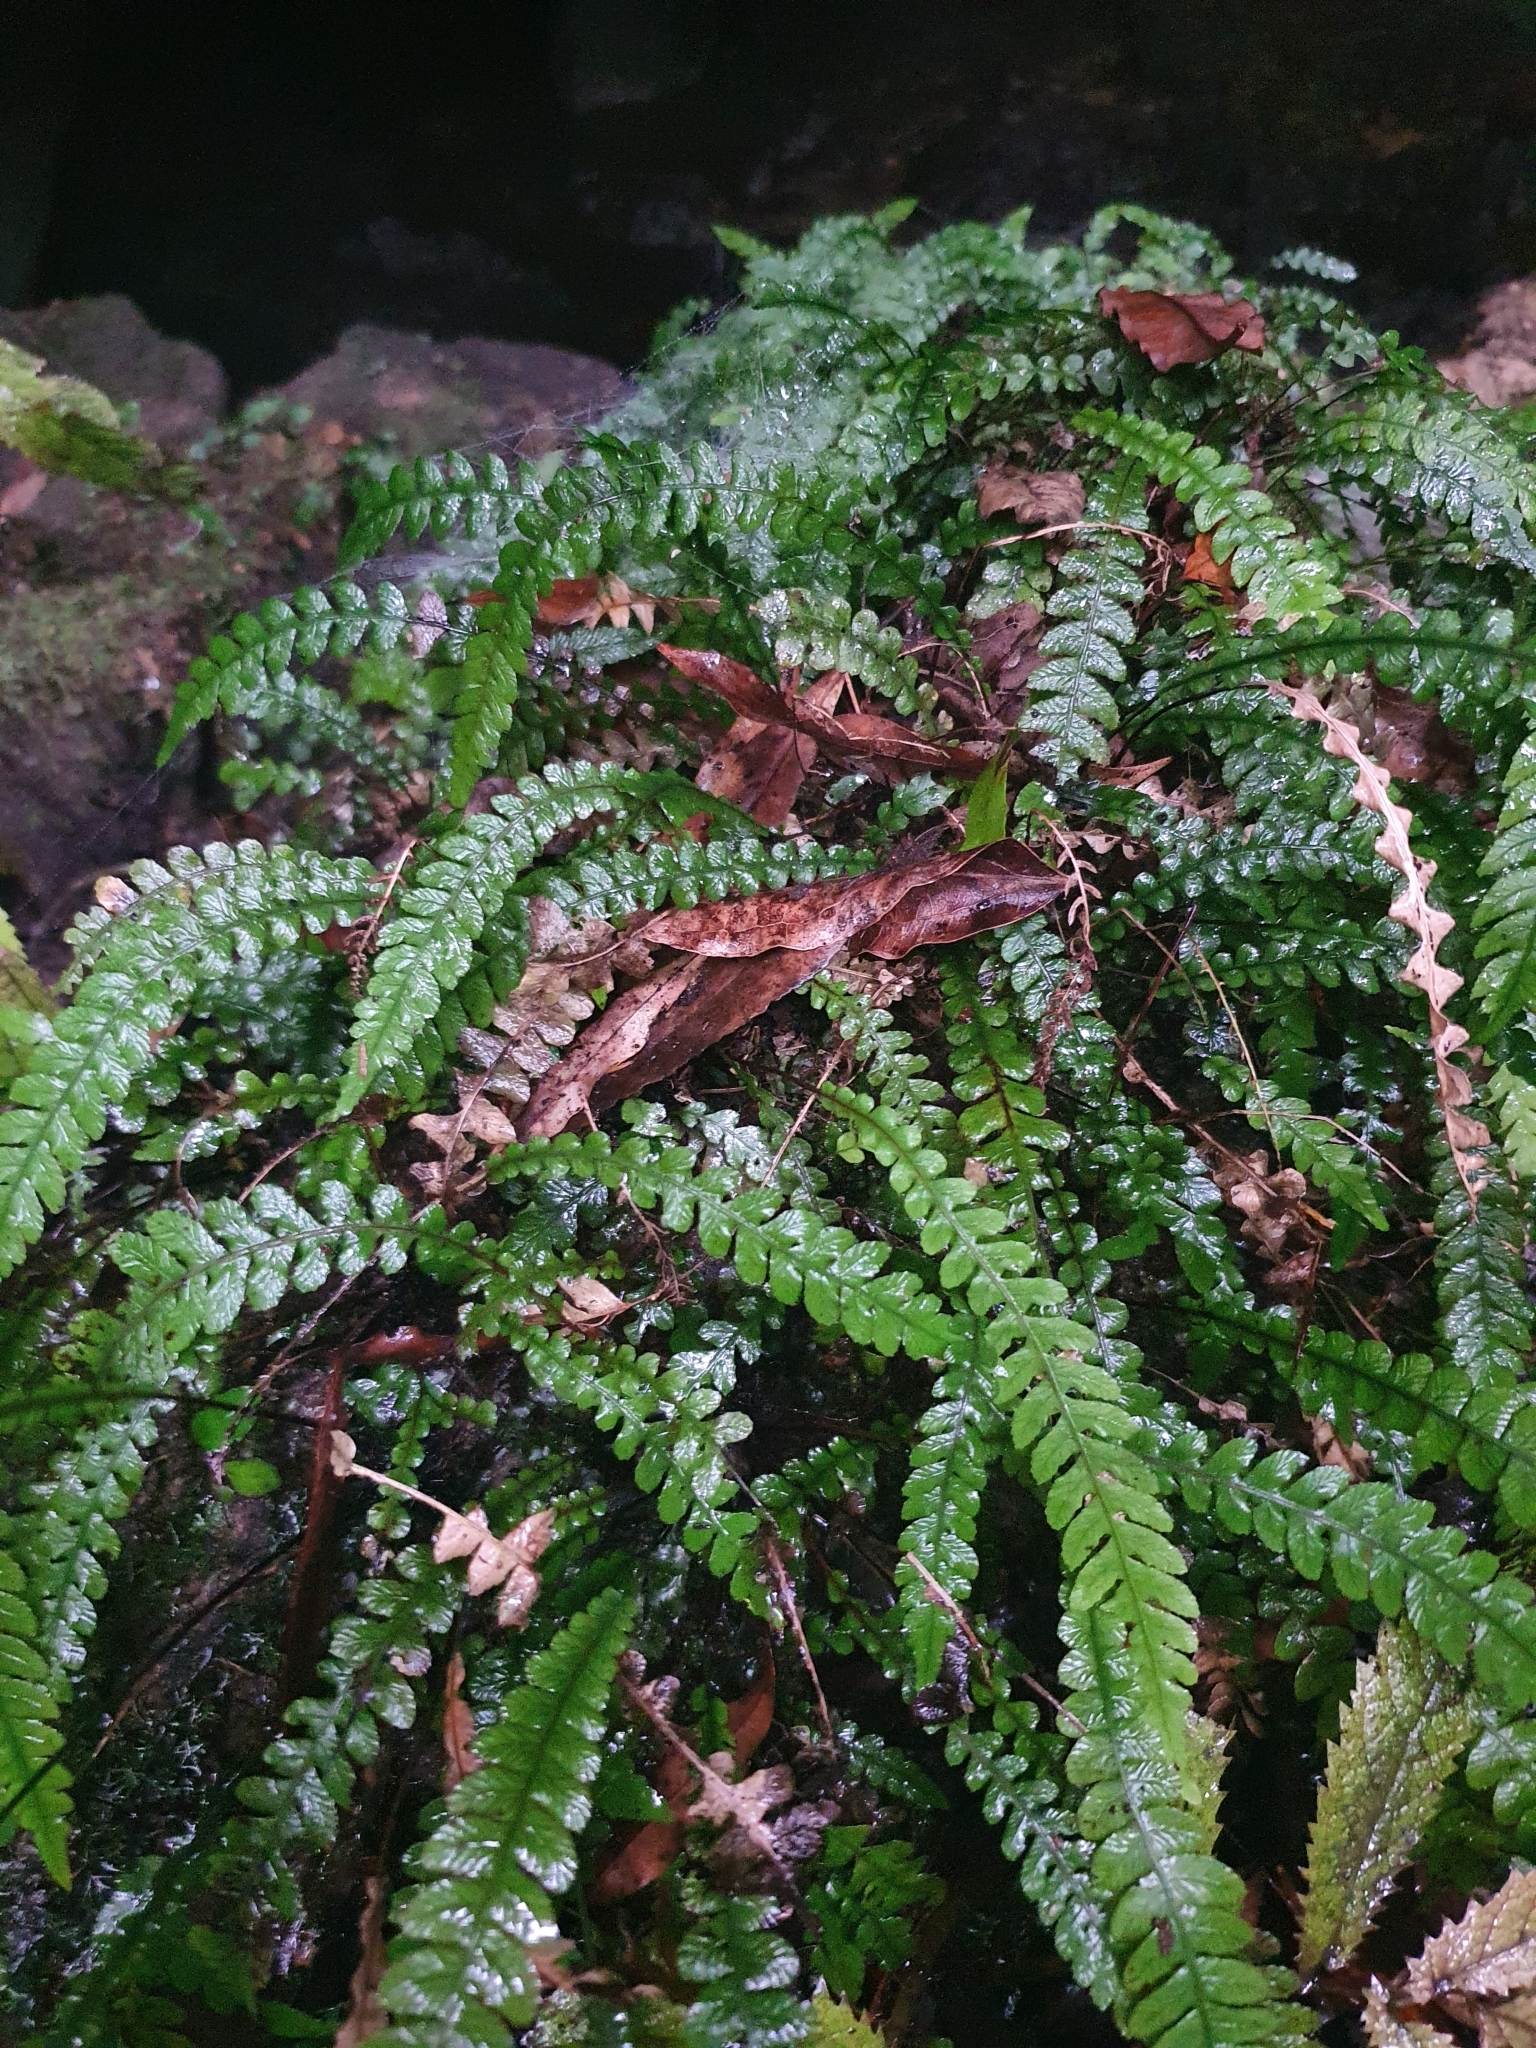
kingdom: Plantae
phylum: Tracheophyta
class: Polypodiopsida
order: Polypodiales
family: Blechnaceae
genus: Austroblechnum
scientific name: Austroblechnum membranaceum
